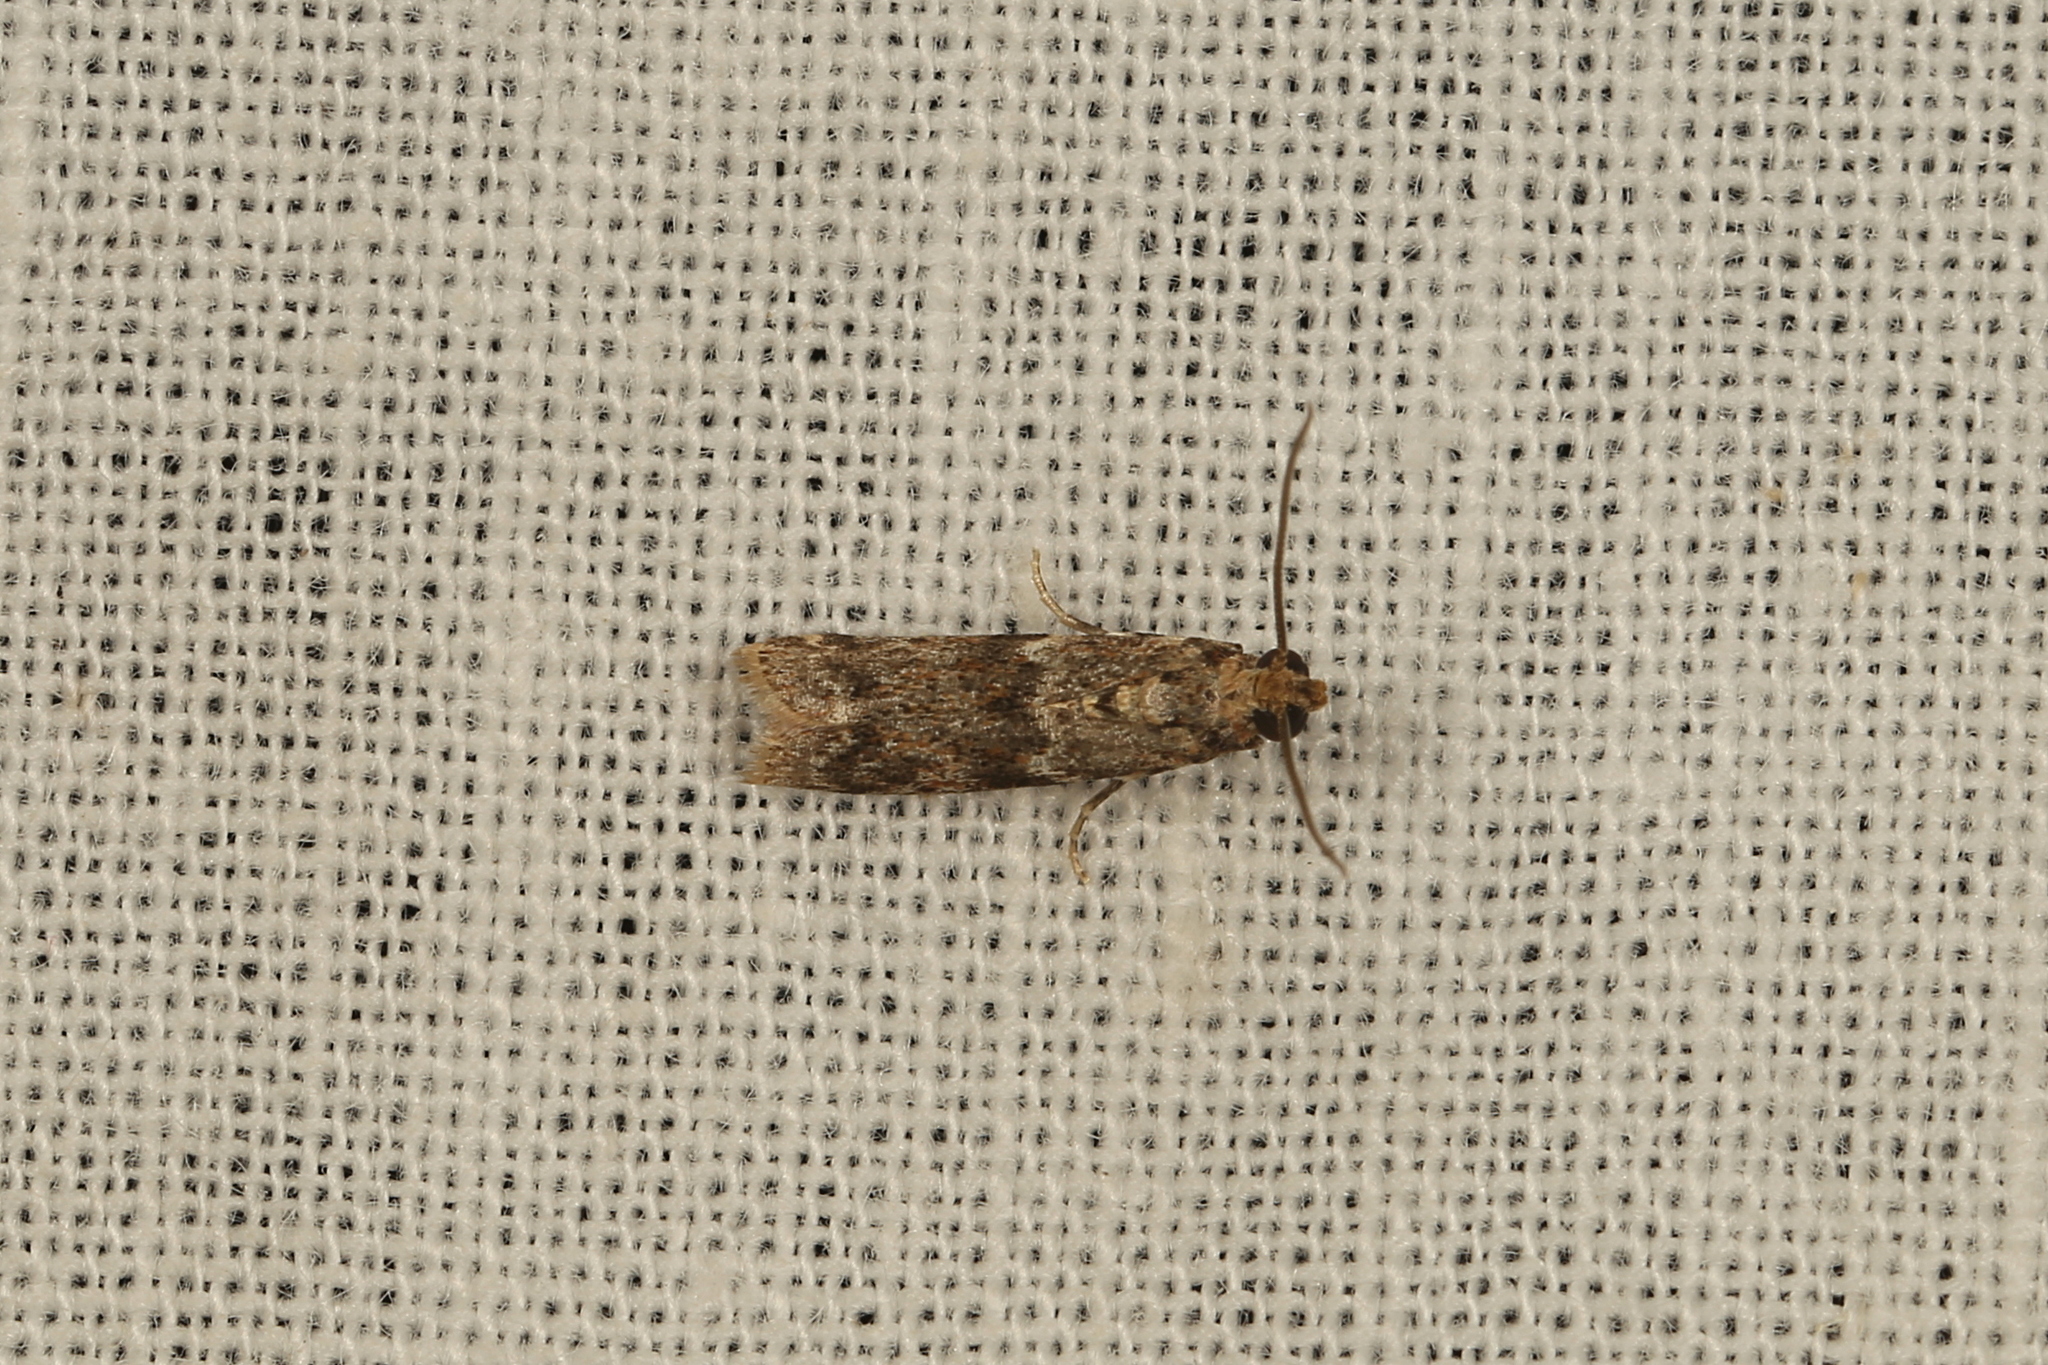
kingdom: Animalia
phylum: Arthropoda
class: Insecta
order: Lepidoptera
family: Pyralidae
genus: Ephestiopsis
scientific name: Ephestiopsis oenobarella
